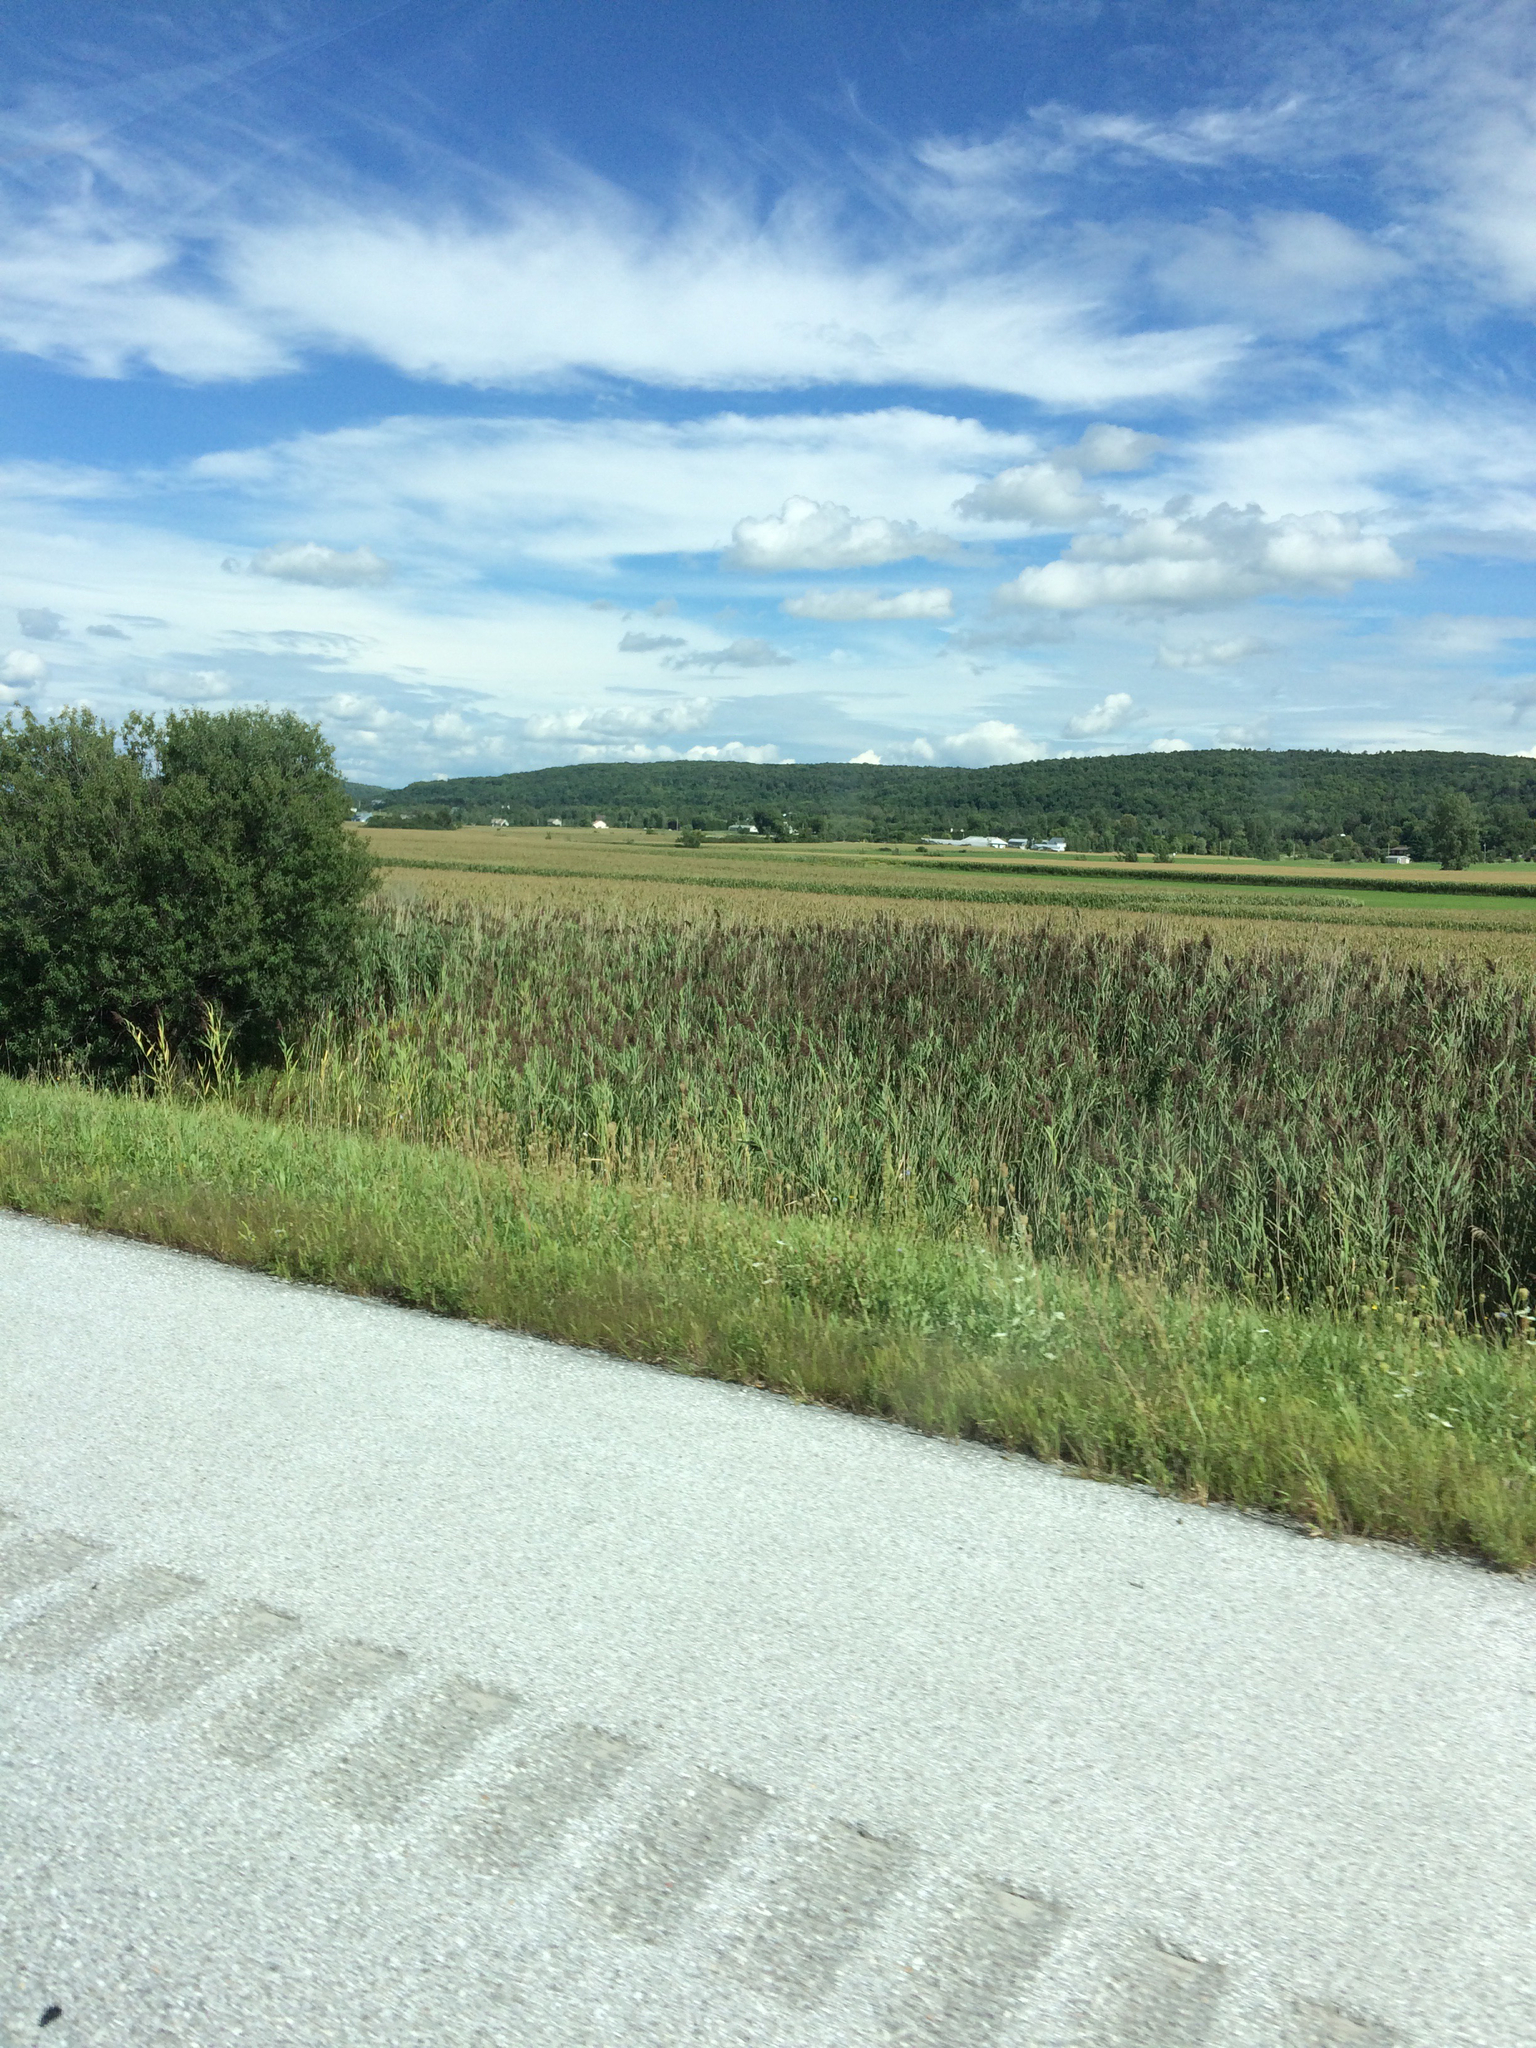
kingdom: Plantae
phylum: Tracheophyta
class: Liliopsida
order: Poales
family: Poaceae
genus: Phragmites
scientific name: Phragmites australis
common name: Common reed
